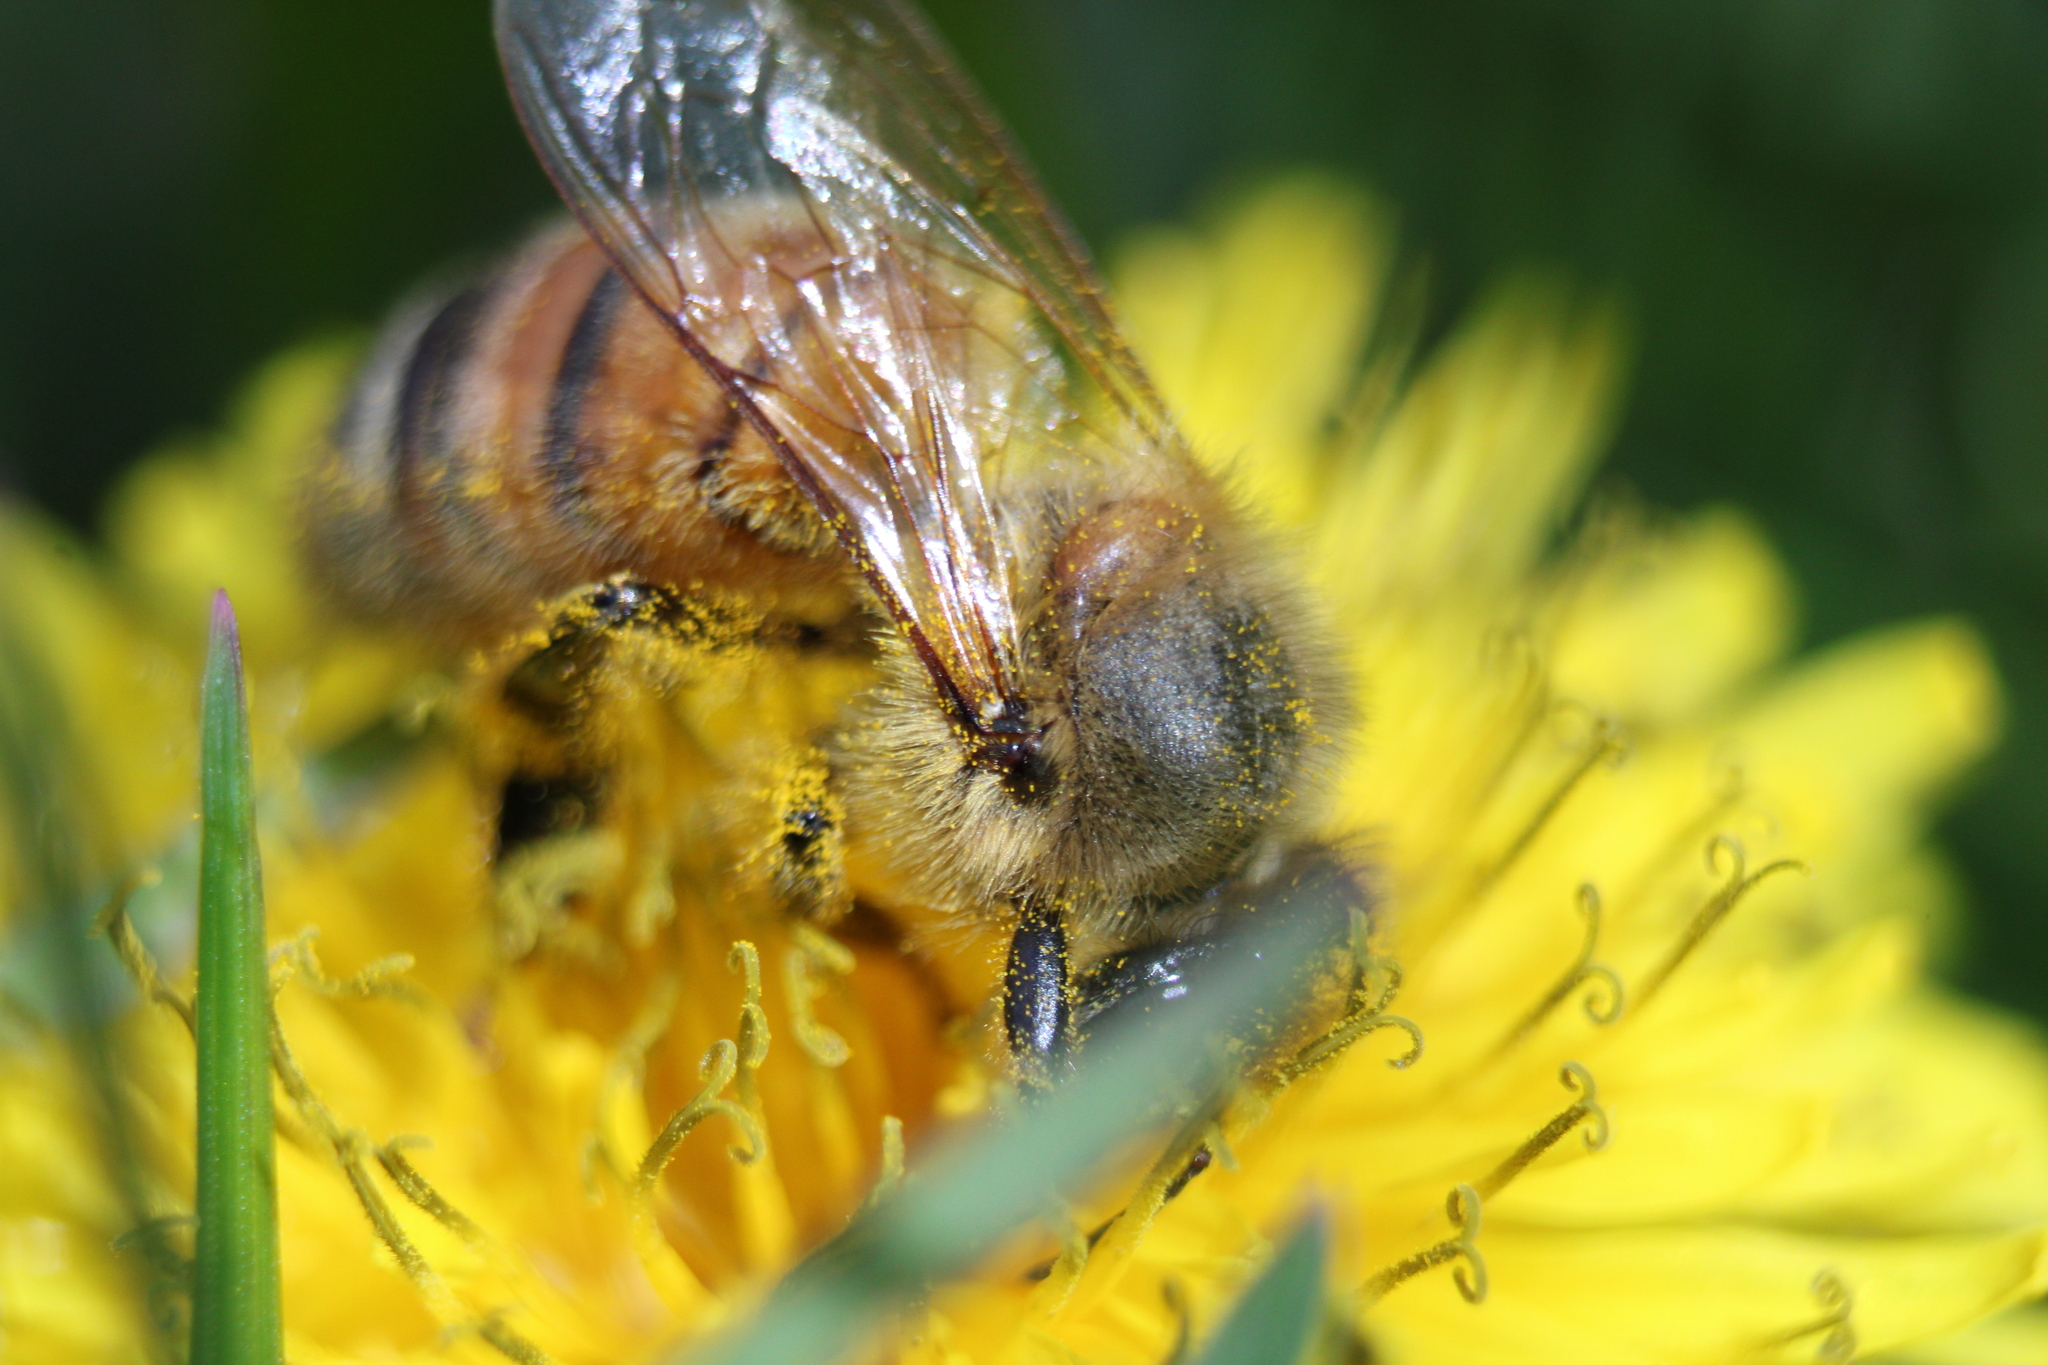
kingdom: Animalia
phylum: Arthropoda
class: Insecta
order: Hymenoptera
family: Apidae
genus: Apis
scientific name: Apis mellifera
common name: Honey bee
